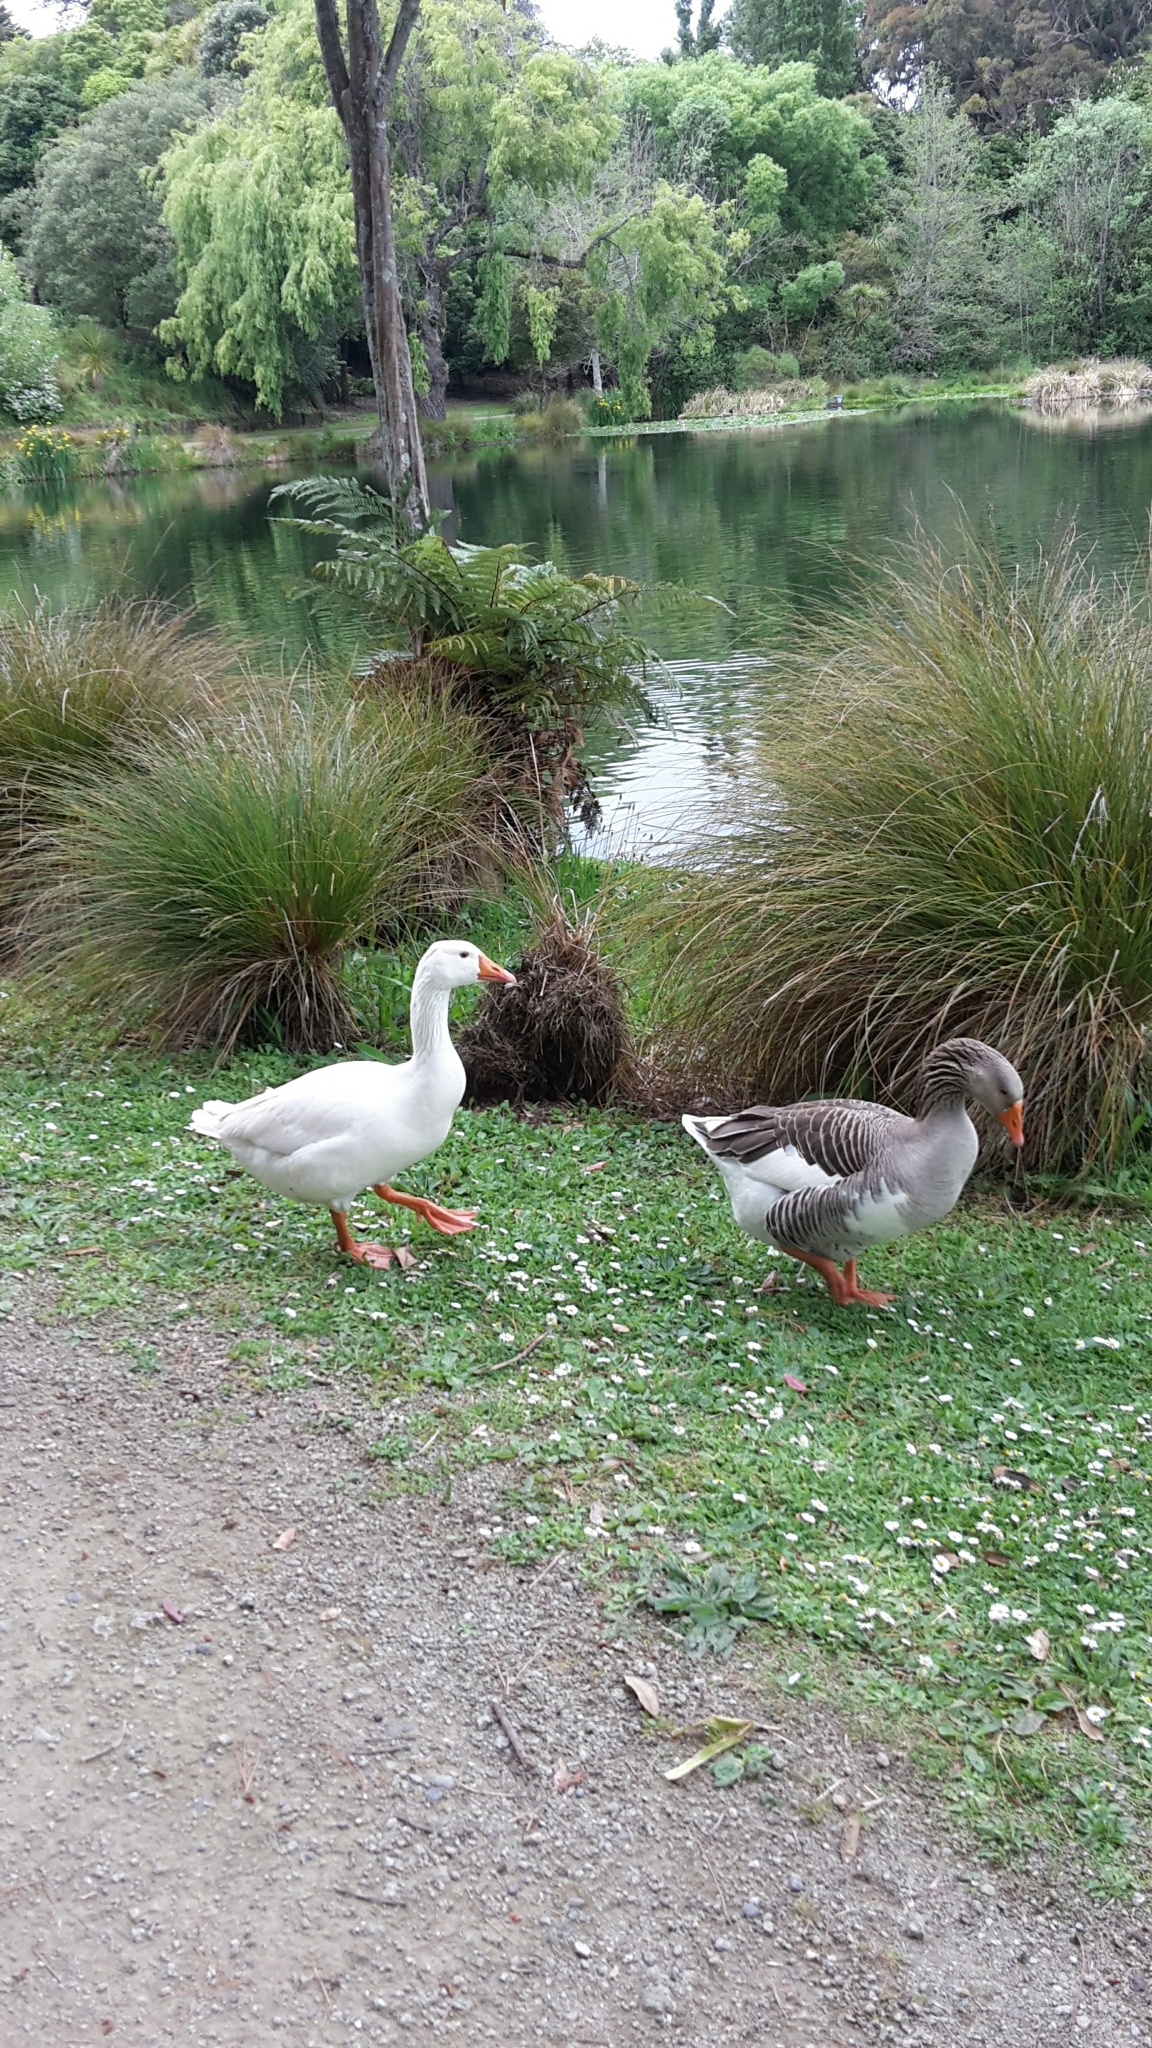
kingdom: Animalia
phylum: Chordata
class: Aves
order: Anseriformes
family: Anatidae
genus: Anser
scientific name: Anser anser
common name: Greylag goose
